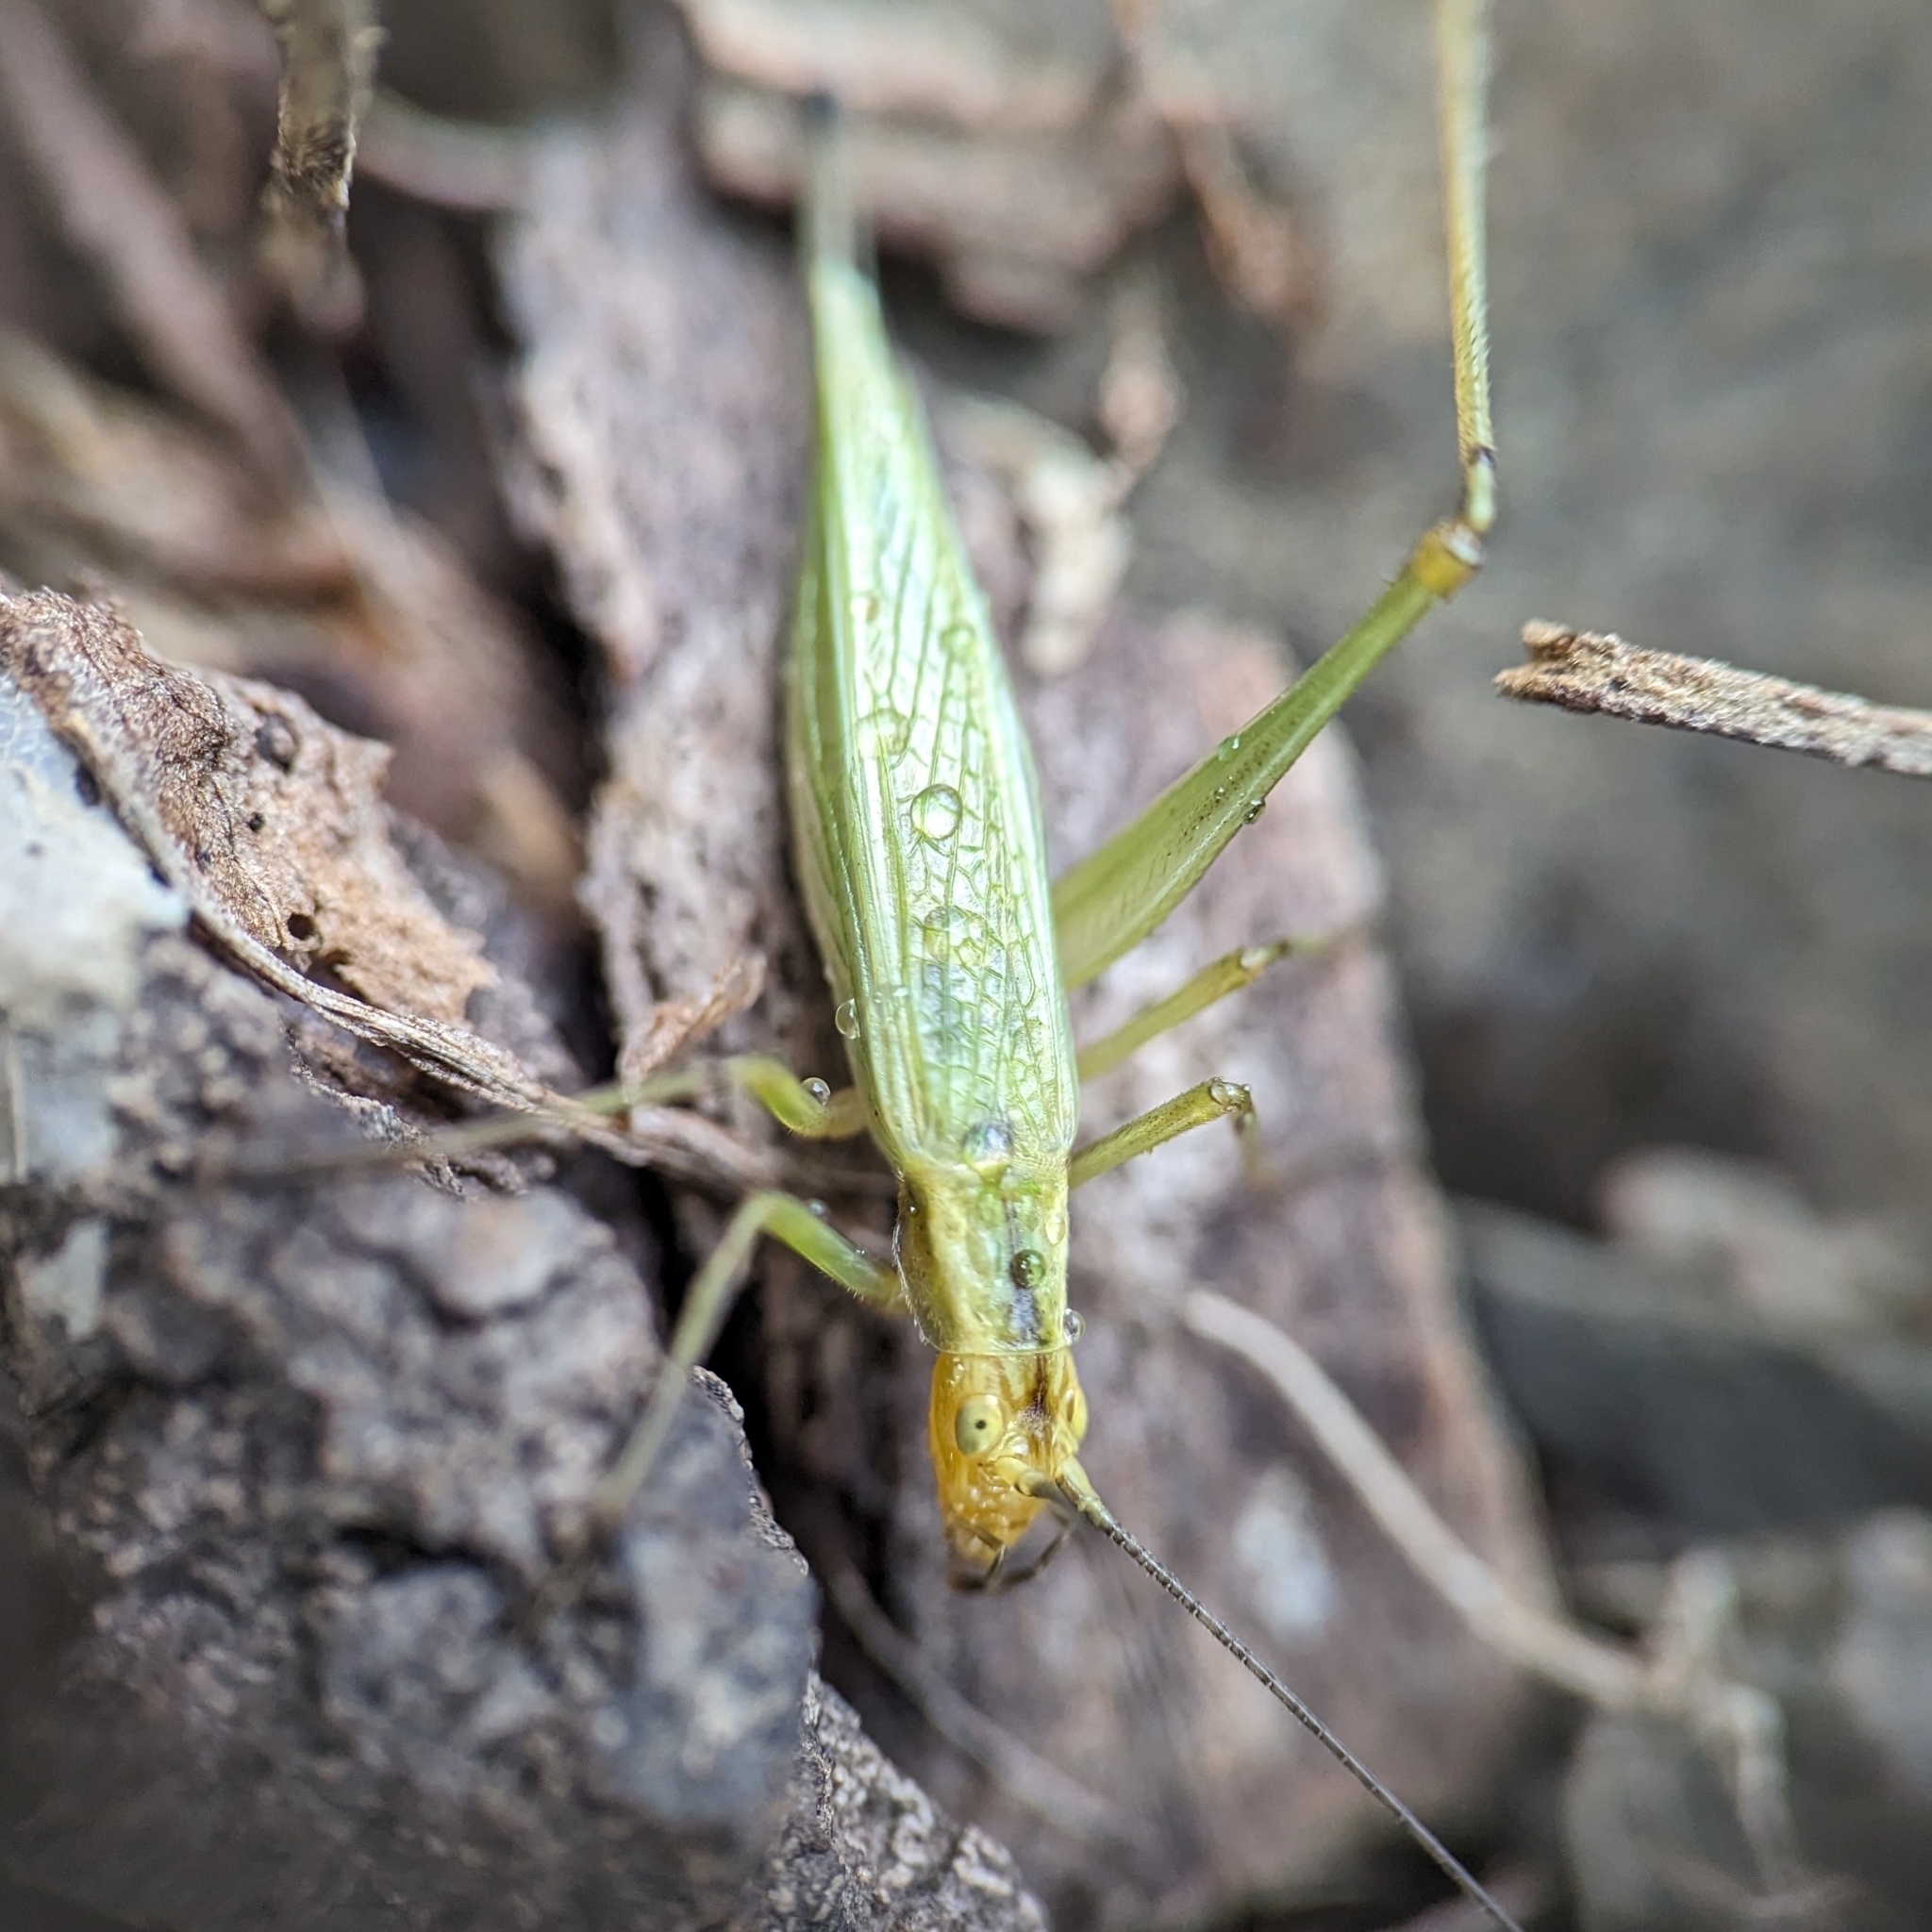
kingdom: Animalia
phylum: Arthropoda
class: Insecta
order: Orthoptera
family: Gryllidae
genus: Oecanthus
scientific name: Oecanthus nigricornis
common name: Black-horned tree cricket
